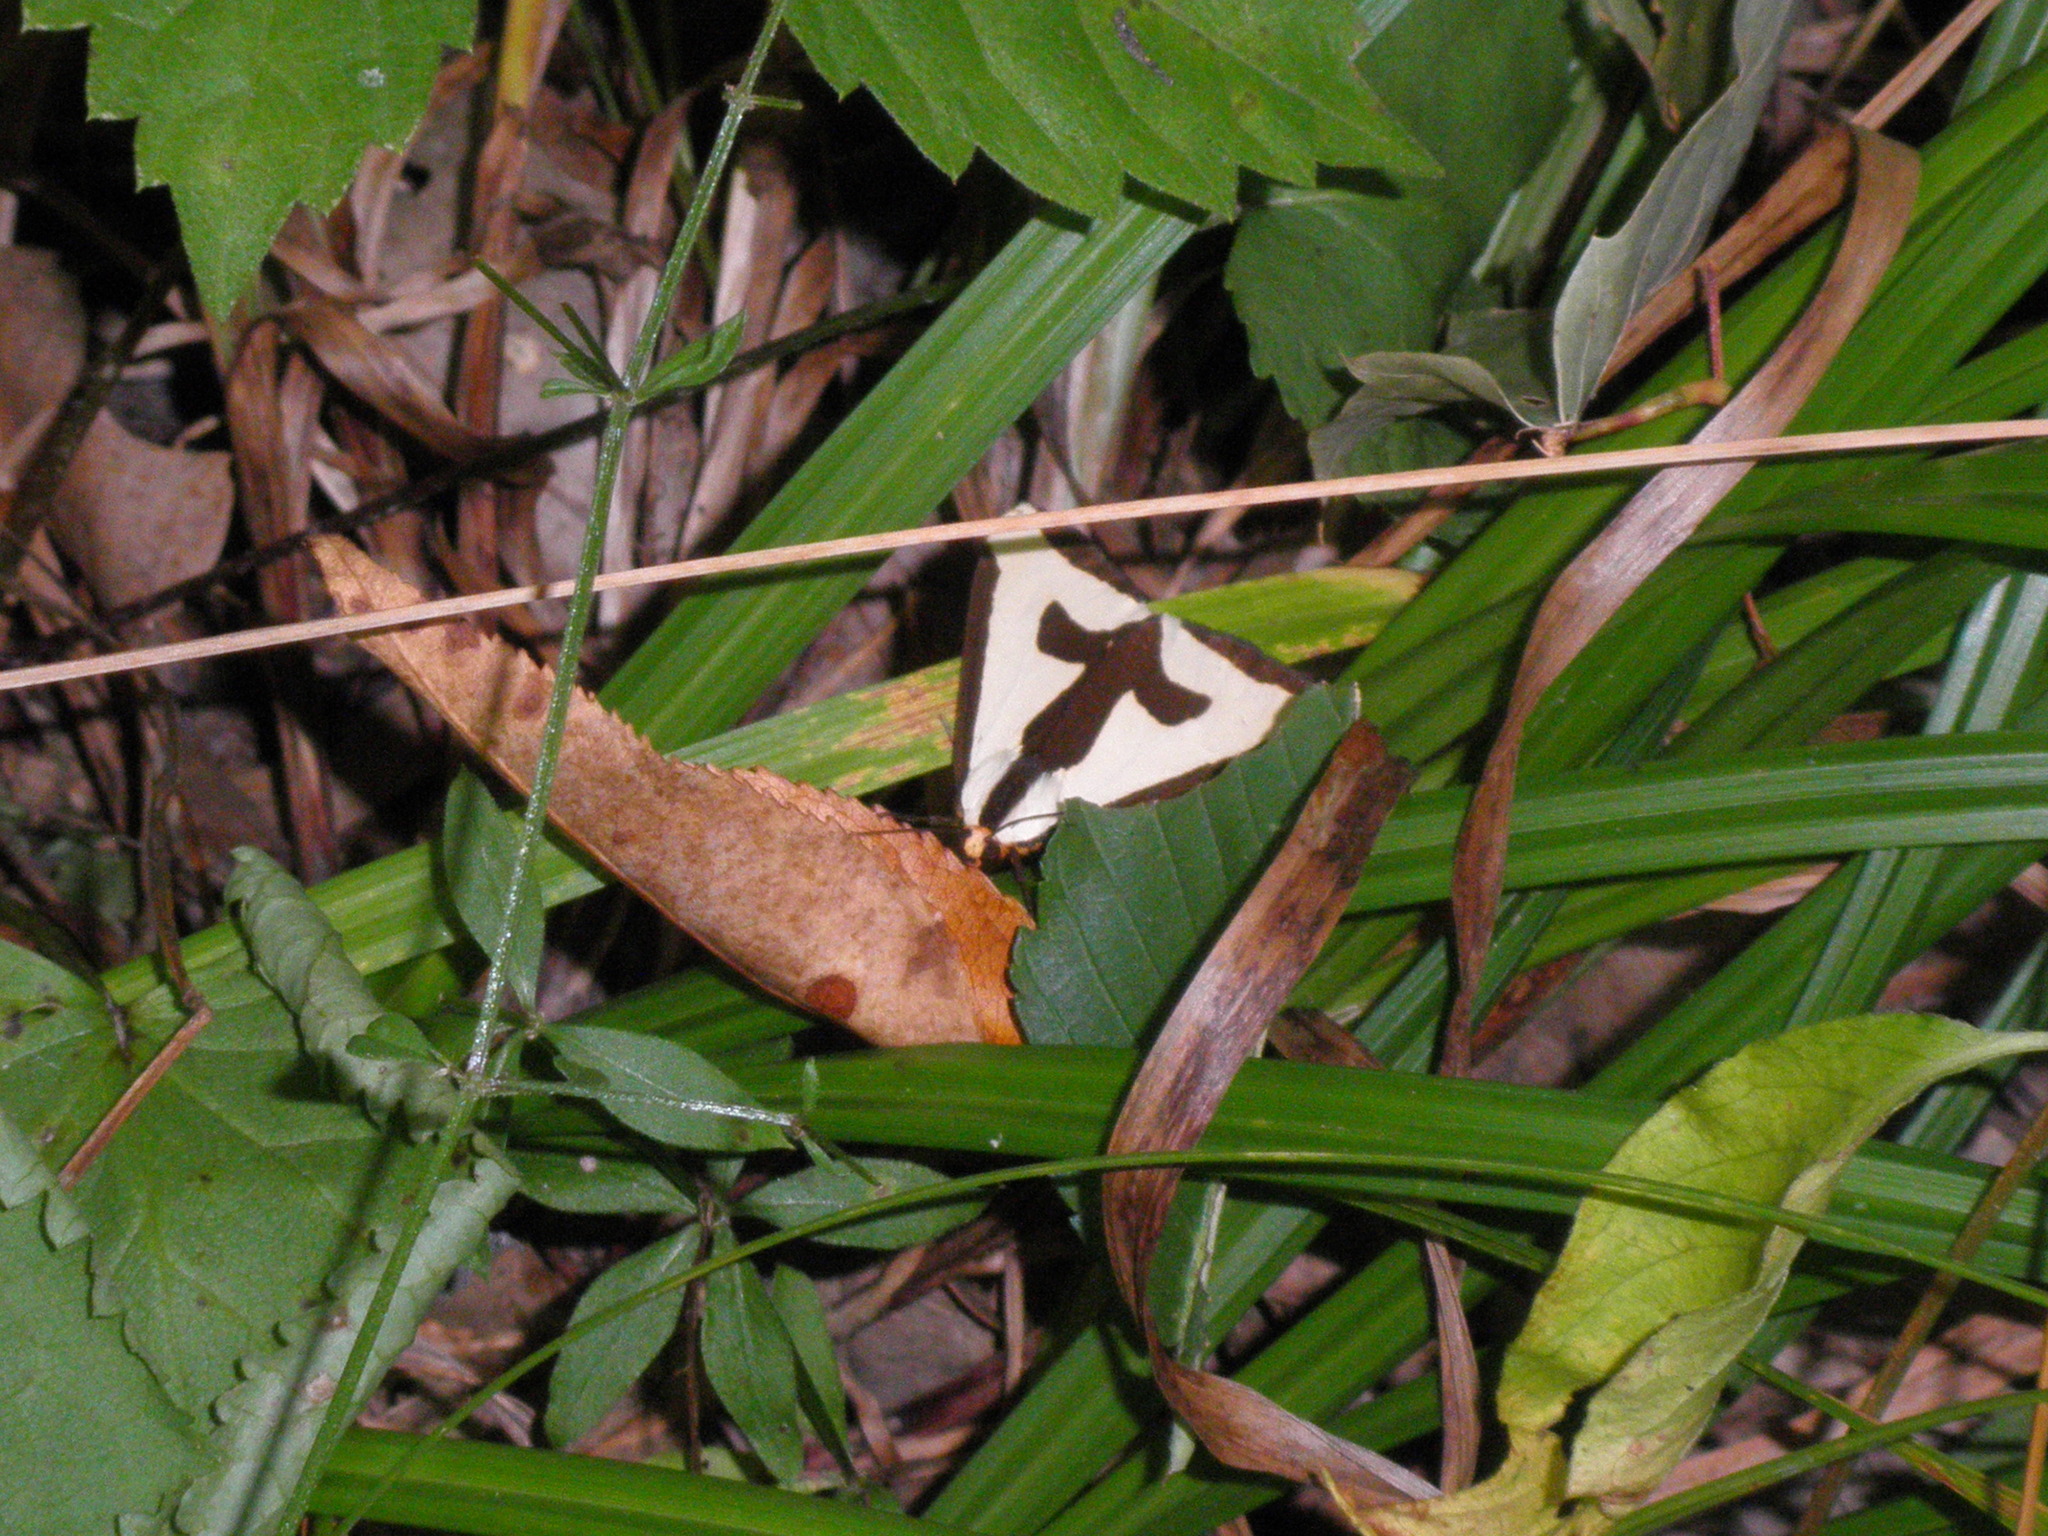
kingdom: Animalia
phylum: Arthropoda
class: Insecta
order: Lepidoptera
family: Erebidae
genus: Haploa
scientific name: Haploa clymene
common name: Clymene moth
